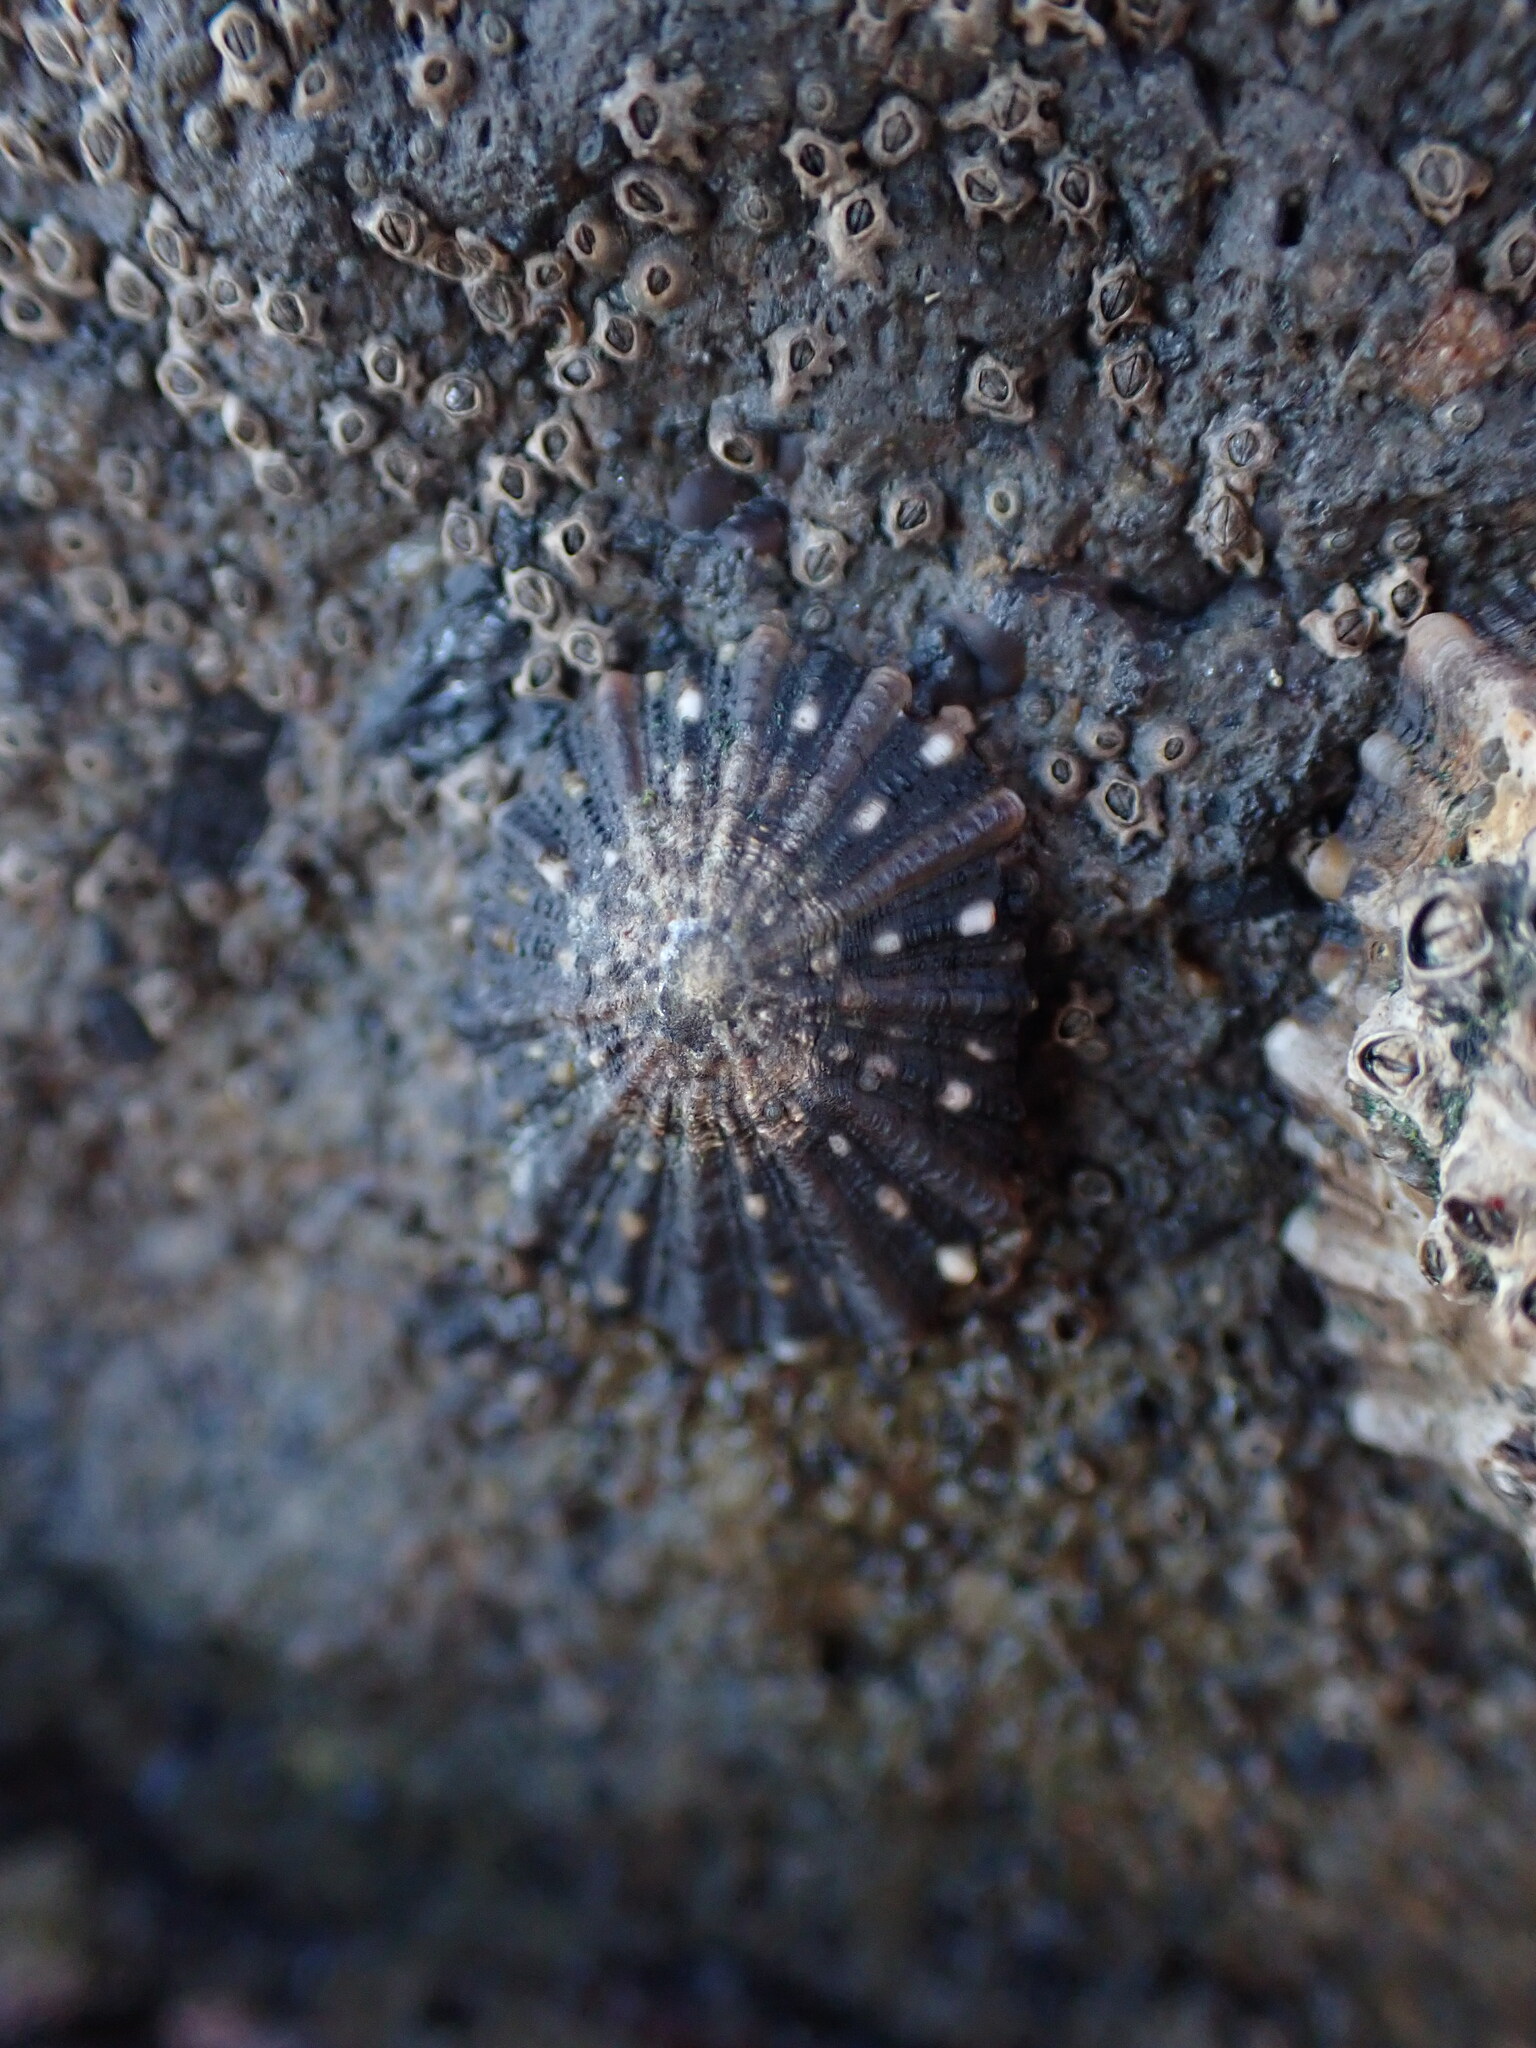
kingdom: Animalia
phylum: Mollusca
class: Gastropoda
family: Nacellidae
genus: Cellana
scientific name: Cellana ornata
